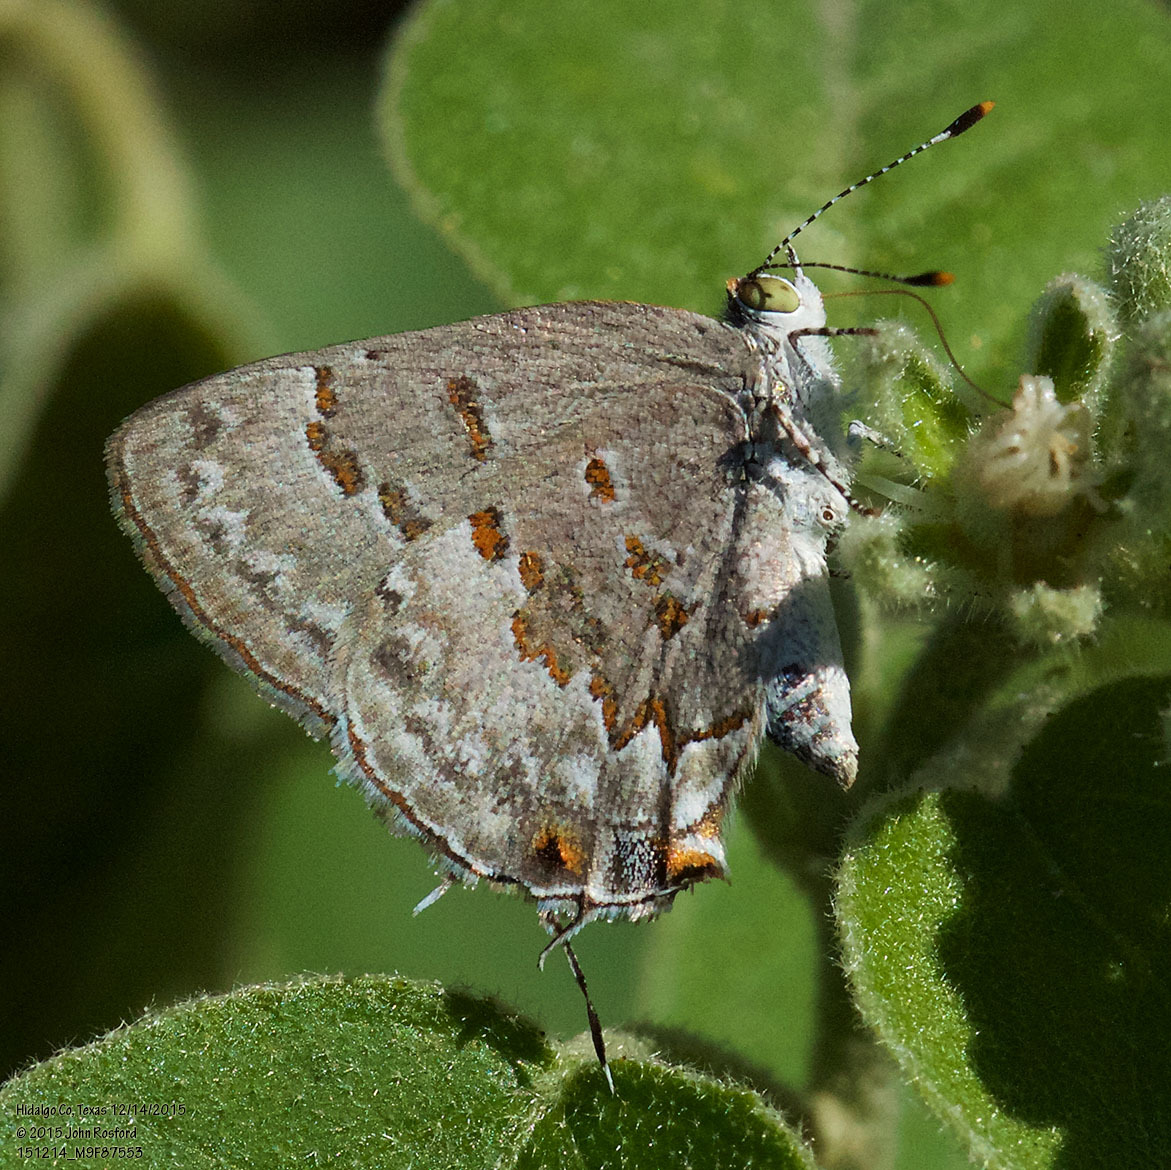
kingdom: Animalia
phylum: Arthropoda
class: Insecta
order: Lepidoptera
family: Lycaenidae
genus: Ministrymon
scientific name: Ministrymon clytie
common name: Clytie ministreak
